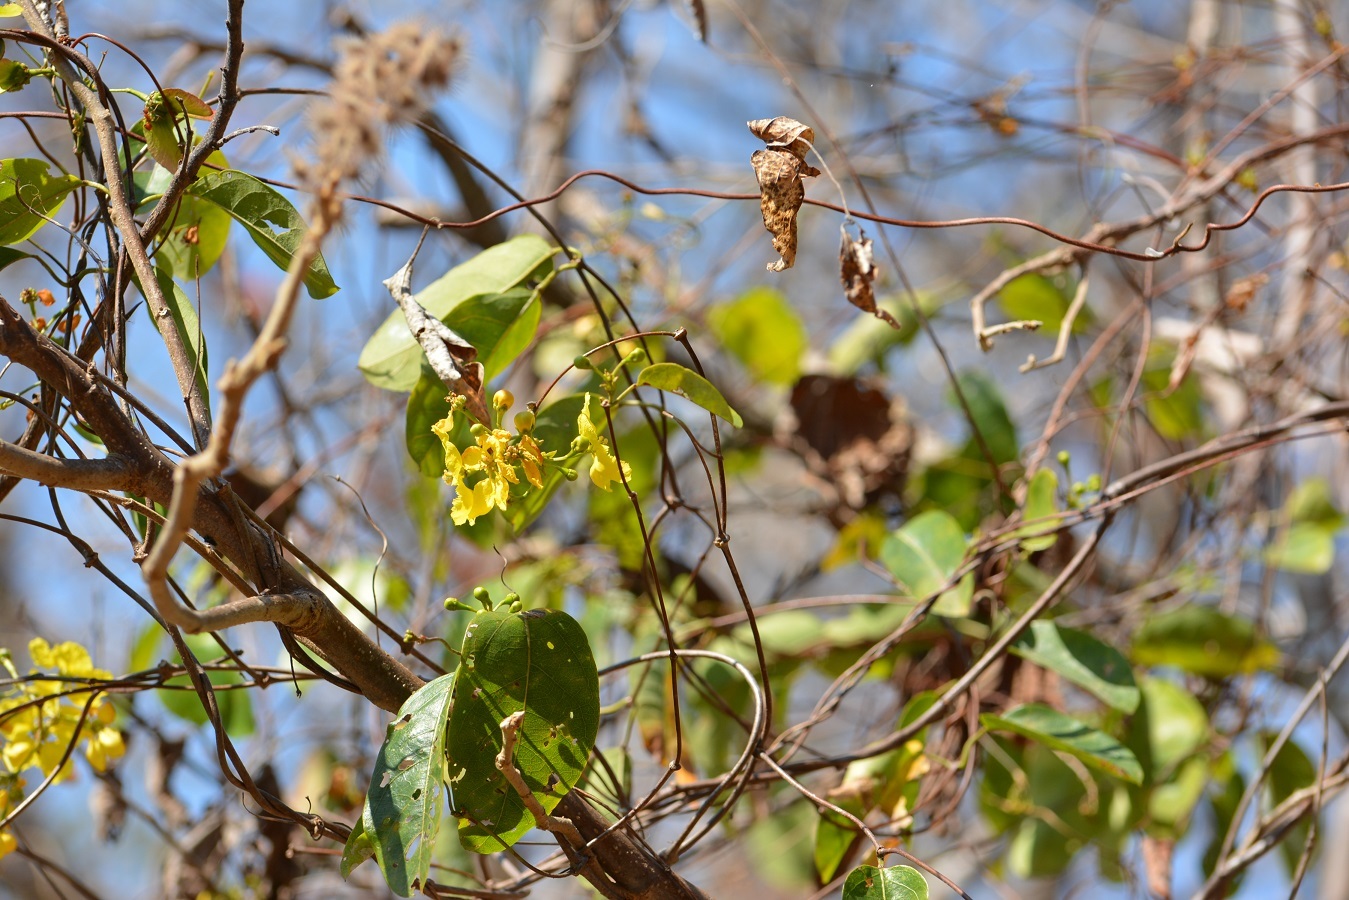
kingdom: Plantae
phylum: Tracheophyta
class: Magnoliopsida
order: Malpighiales
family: Malpighiaceae
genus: Stigmaphyllon
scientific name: Stigmaphyllon ellipticum
